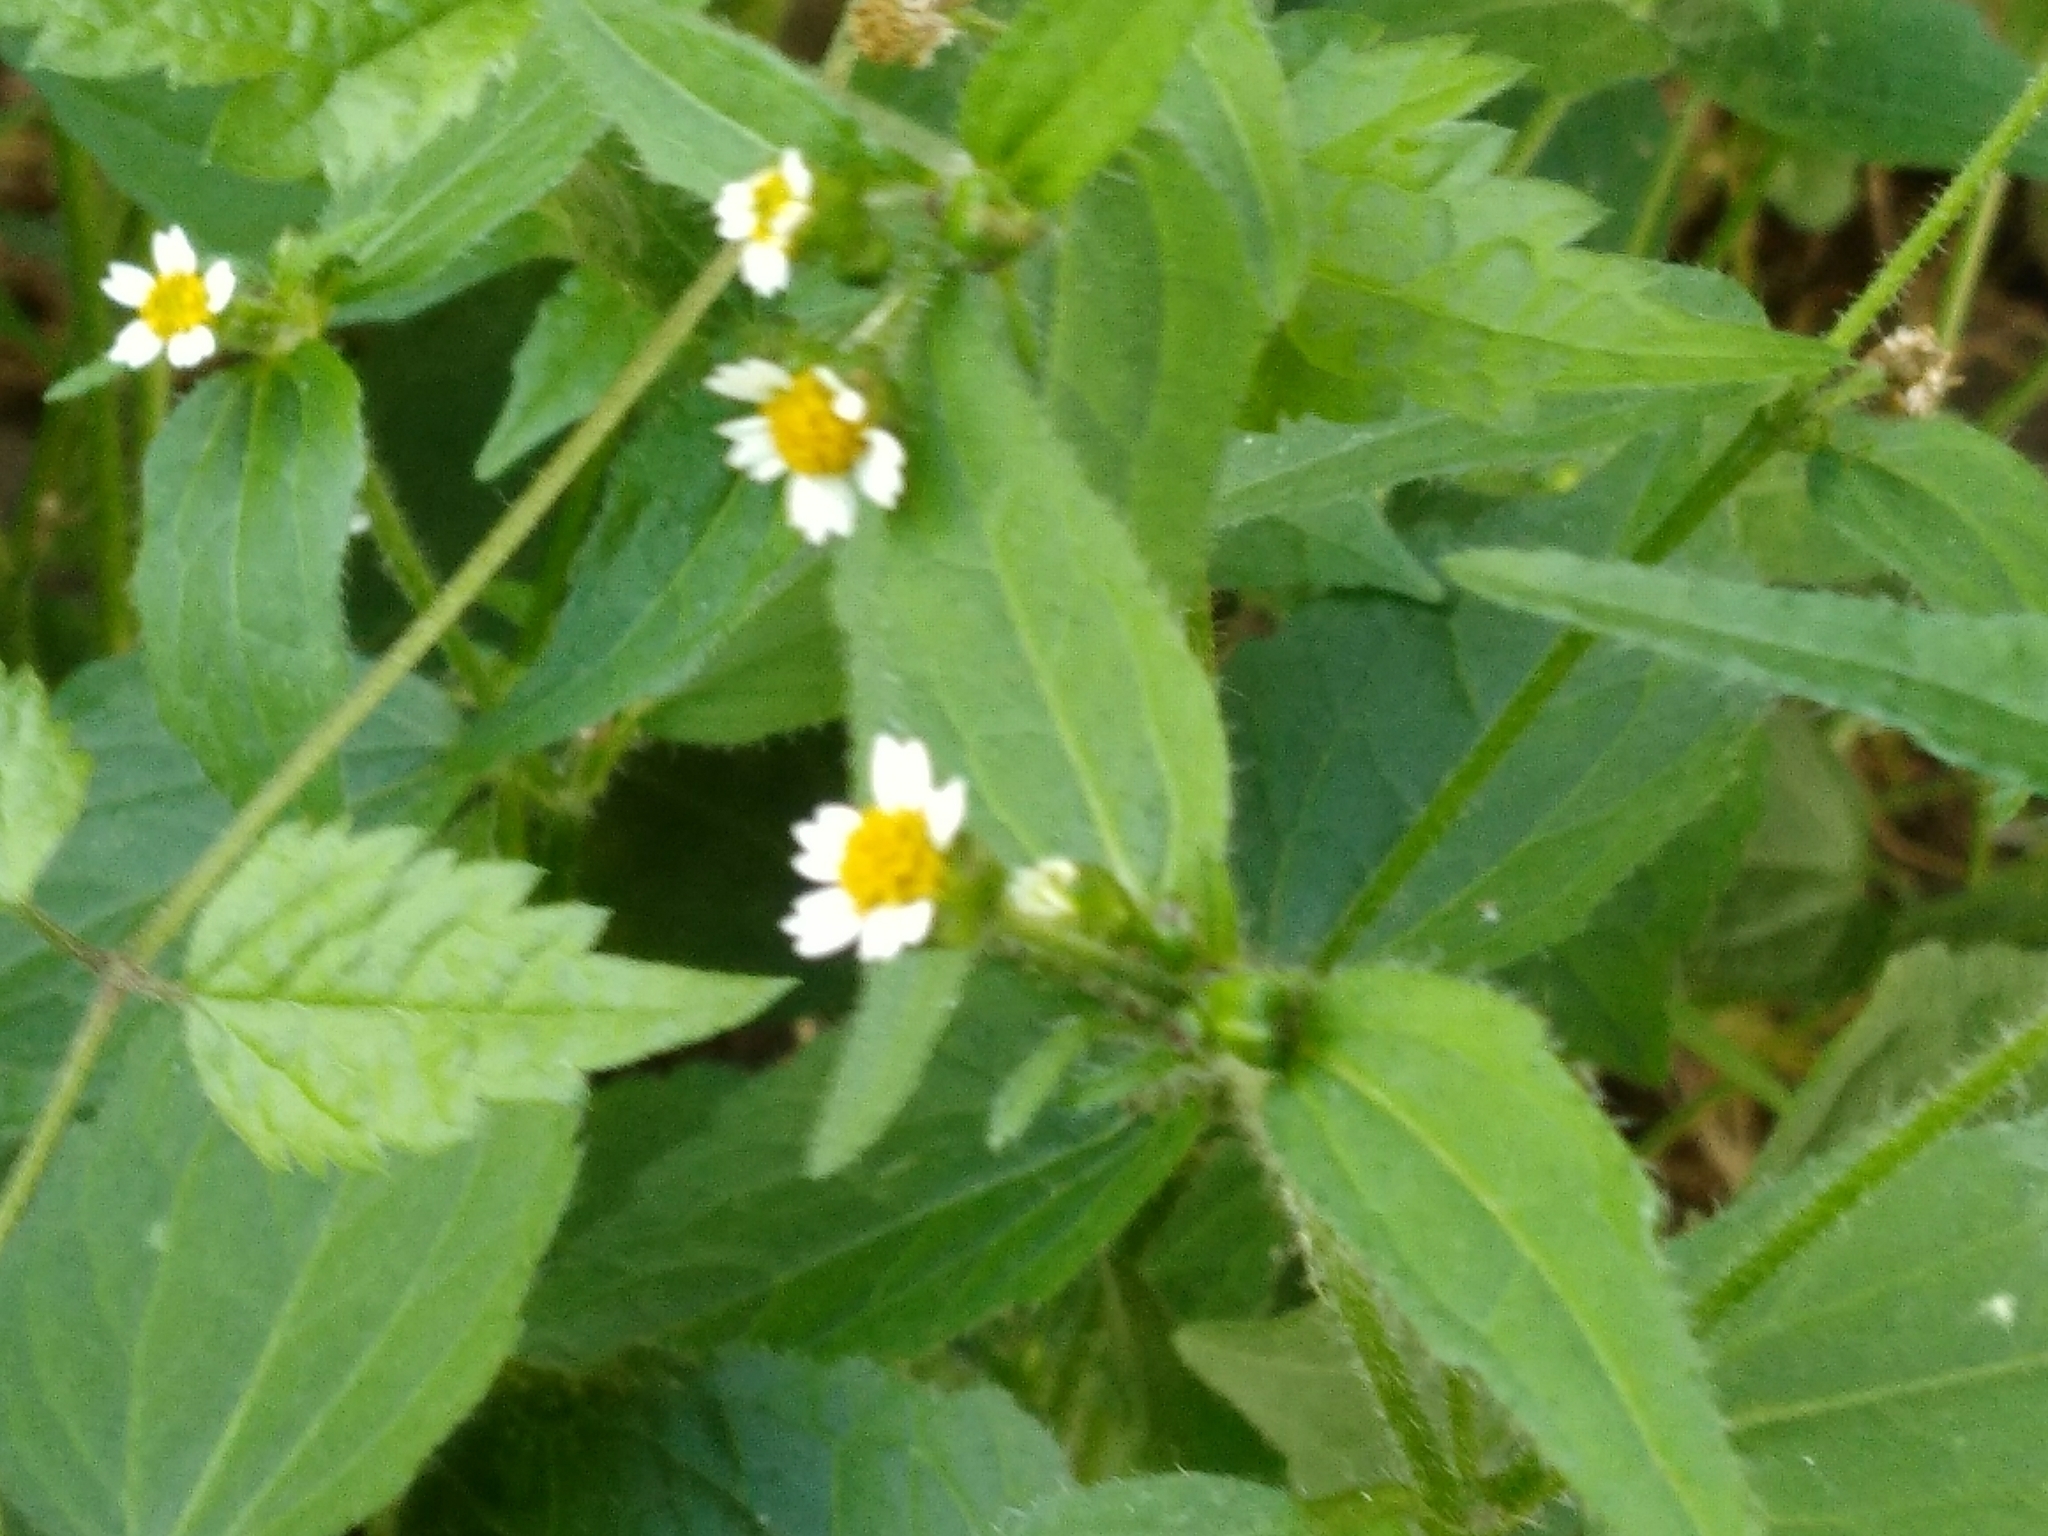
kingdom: Plantae
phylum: Tracheophyta
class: Magnoliopsida
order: Asterales
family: Asteraceae
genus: Galinsoga
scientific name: Galinsoga quadriradiata
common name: Shaggy soldier
